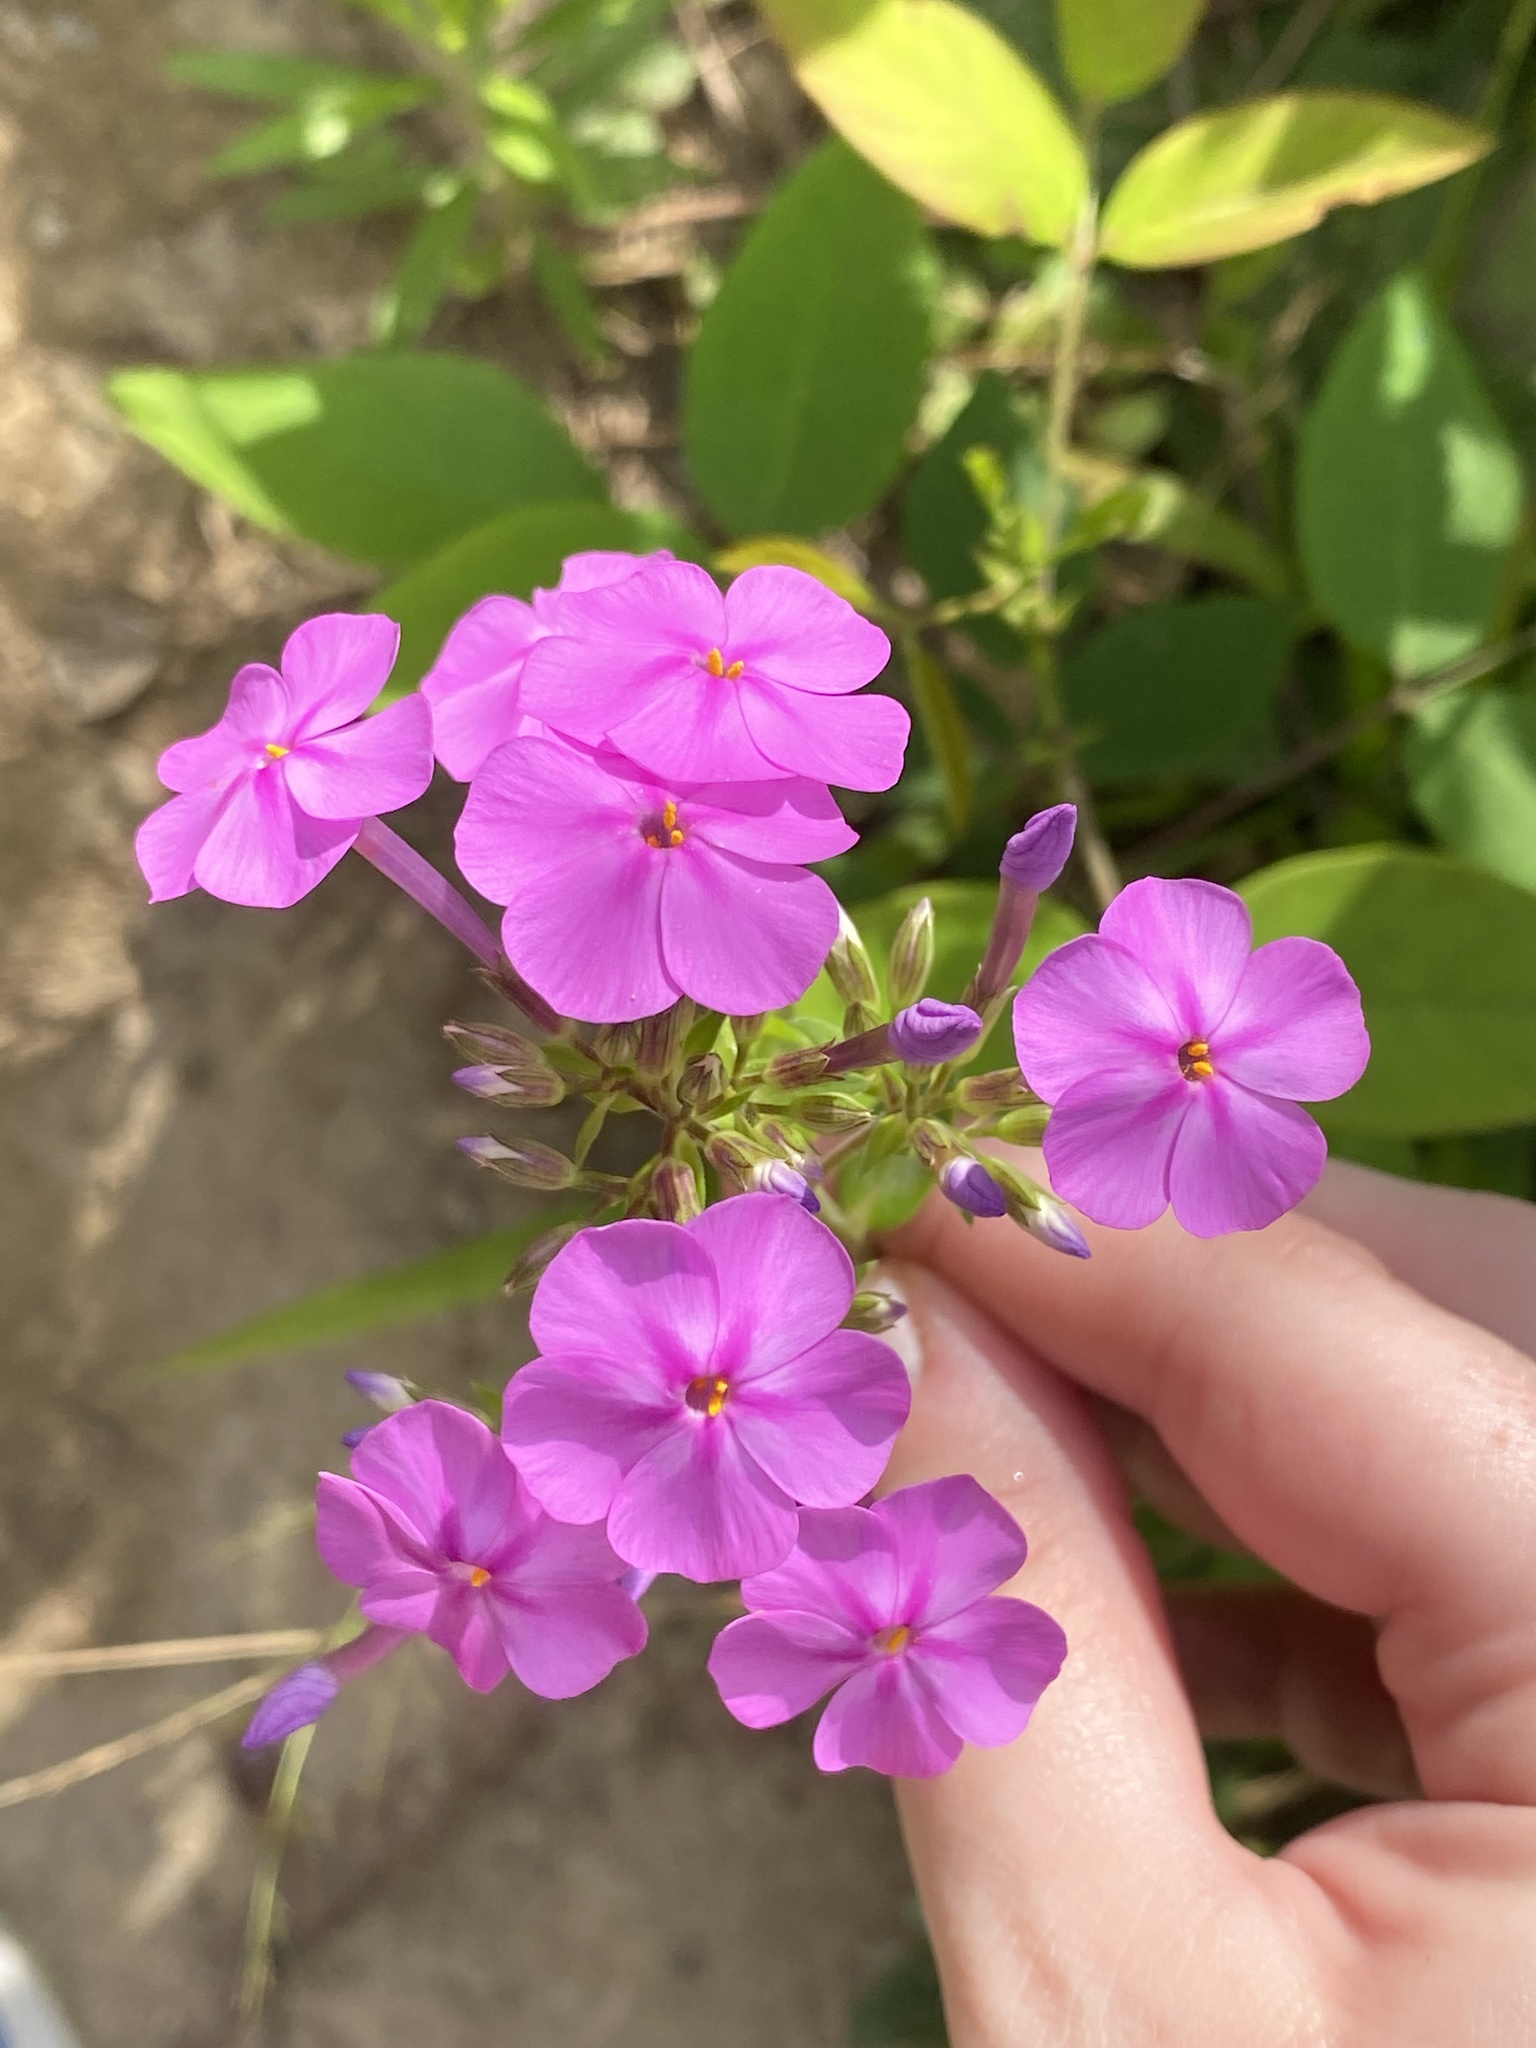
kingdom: Plantae
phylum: Tracheophyta
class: Magnoliopsida
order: Ericales
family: Polemoniaceae
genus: Phlox
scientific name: Phlox glaberrima
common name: Smooth phlox
